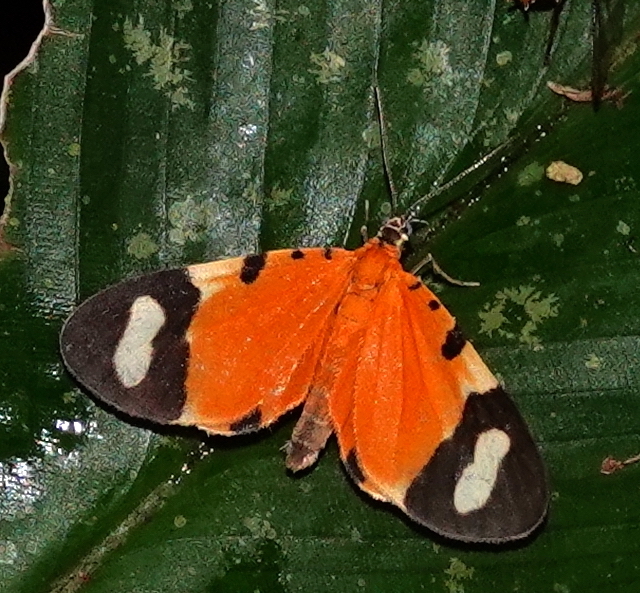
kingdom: Animalia
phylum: Arthropoda
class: Insecta
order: Lepidoptera
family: Geometridae
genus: Eudule
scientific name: Eudule pulchricolora
